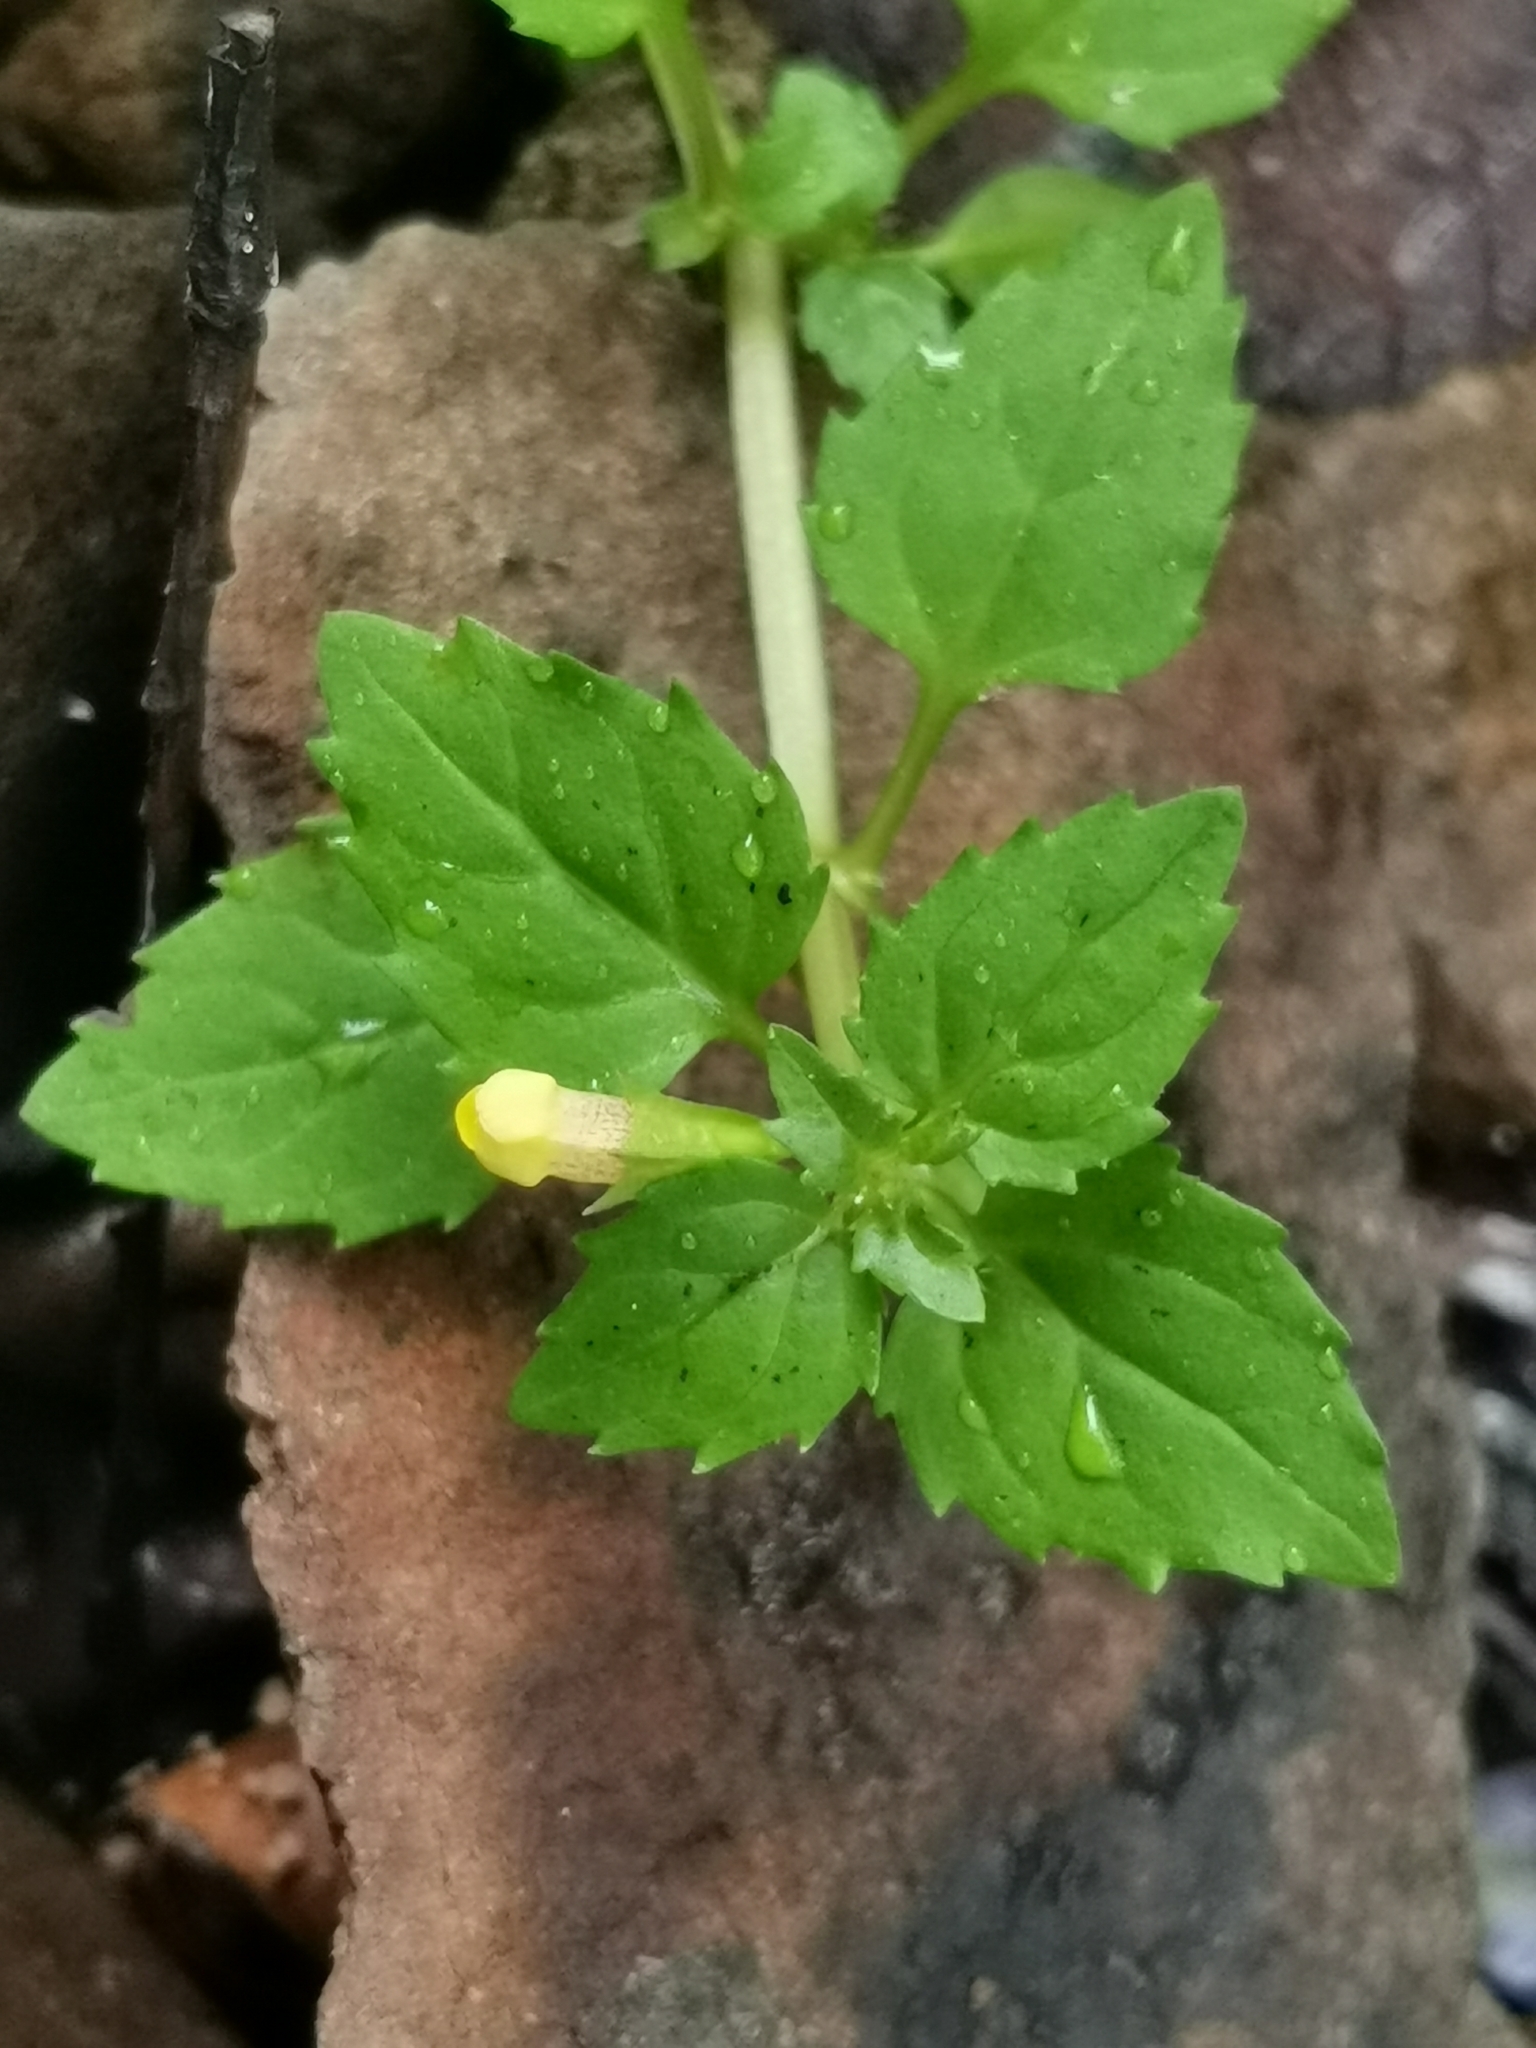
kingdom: Plantae
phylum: Tracheophyta
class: Magnoliopsida
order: Lamiales
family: Phrymaceae
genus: Erythranthe
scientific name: Erythranthe tenella
